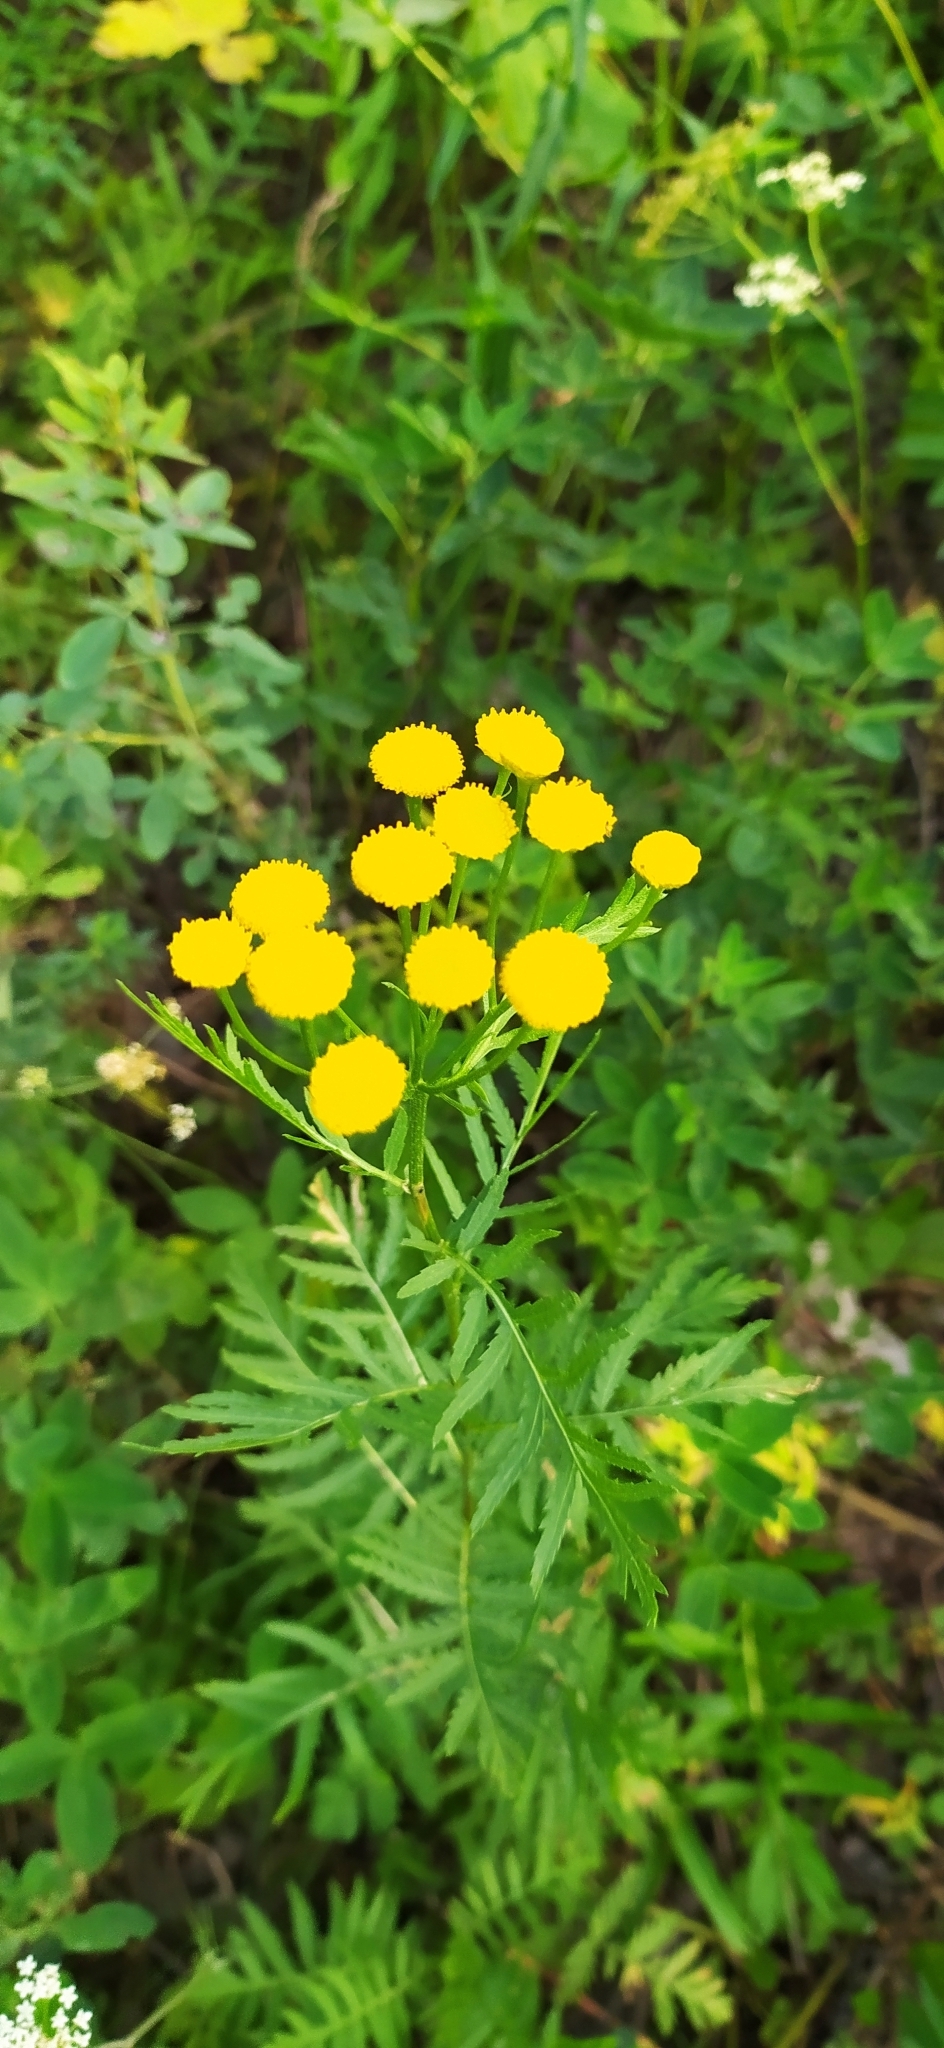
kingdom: Plantae
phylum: Tracheophyta
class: Magnoliopsida
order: Asterales
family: Asteraceae
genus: Tanacetum
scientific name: Tanacetum vulgare
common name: Common tansy
